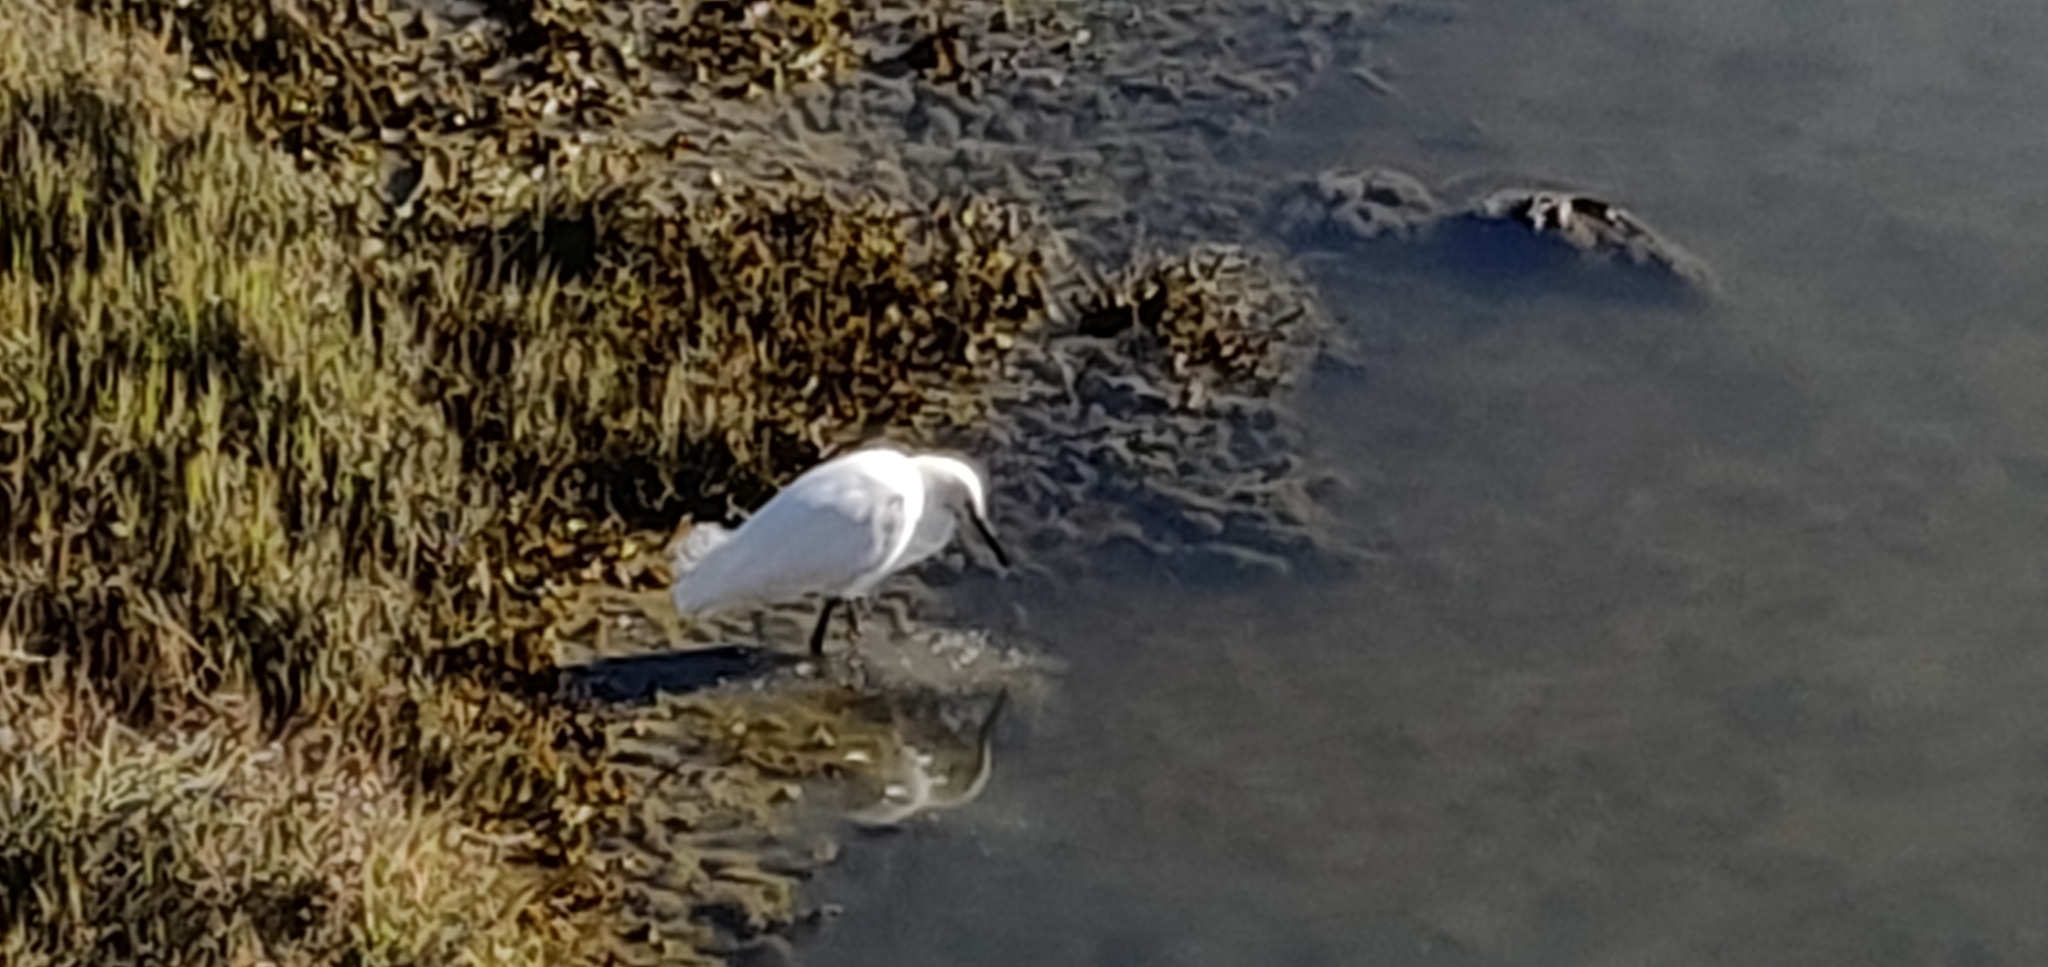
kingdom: Animalia
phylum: Chordata
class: Aves
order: Pelecaniformes
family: Ardeidae
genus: Egretta
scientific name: Egretta thula
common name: Snowy egret
